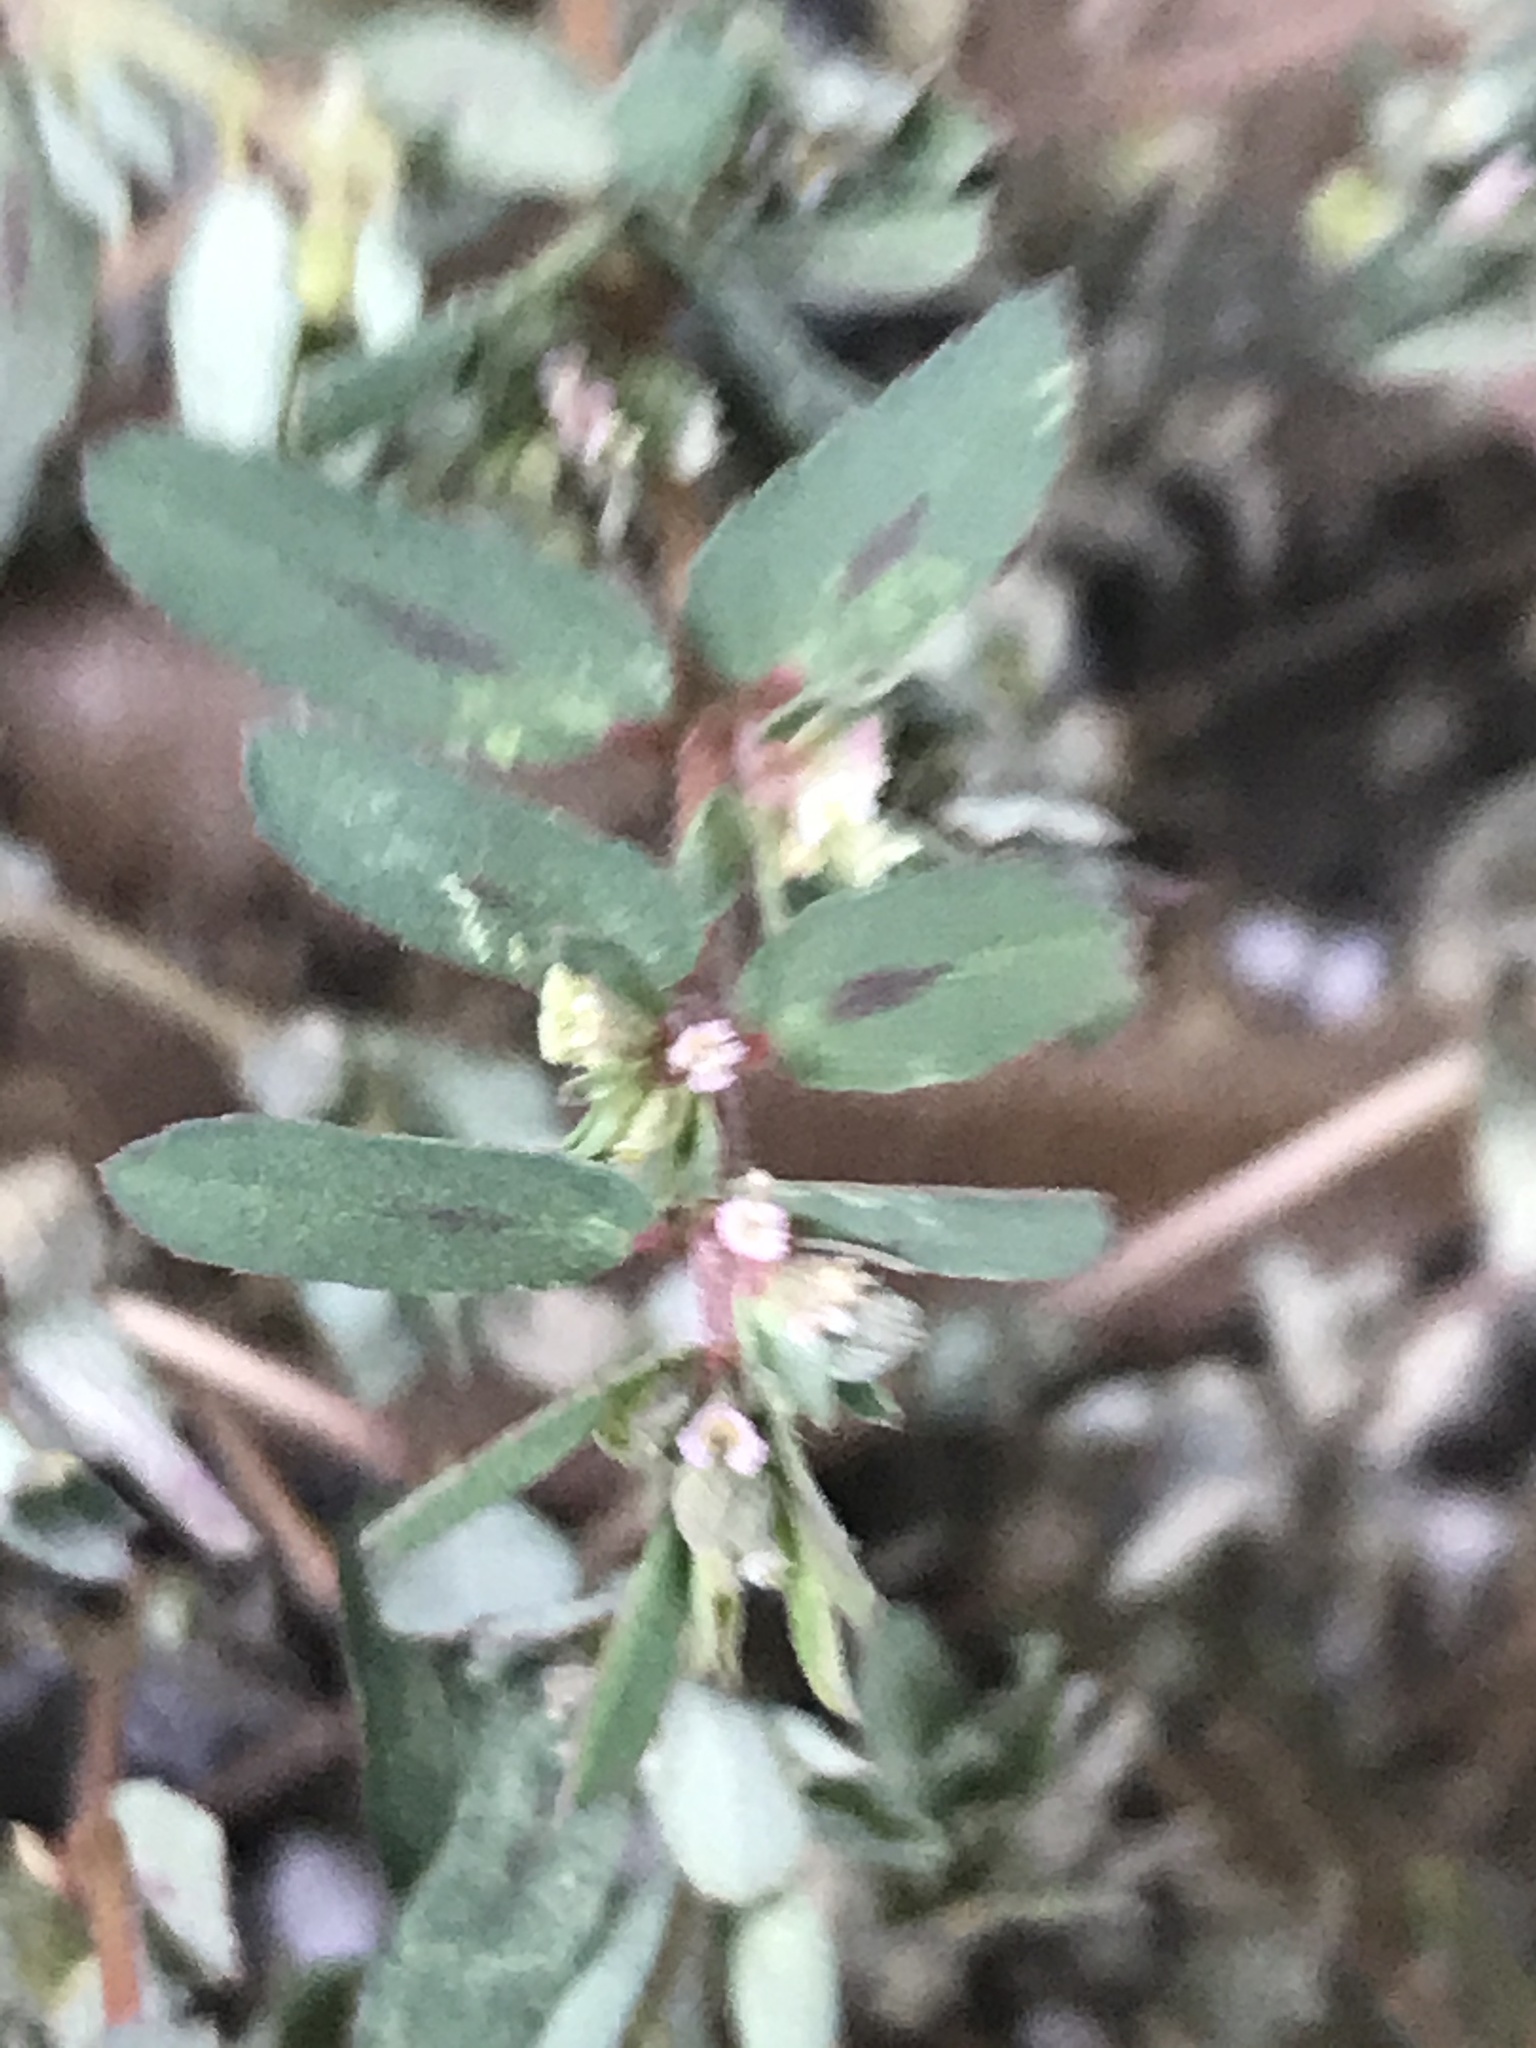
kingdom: Plantae
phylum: Tracheophyta
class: Magnoliopsida
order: Malpighiales
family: Euphorbiaceae
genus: Euphorbia
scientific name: Euphorbia maculata
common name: Spotted spurge
